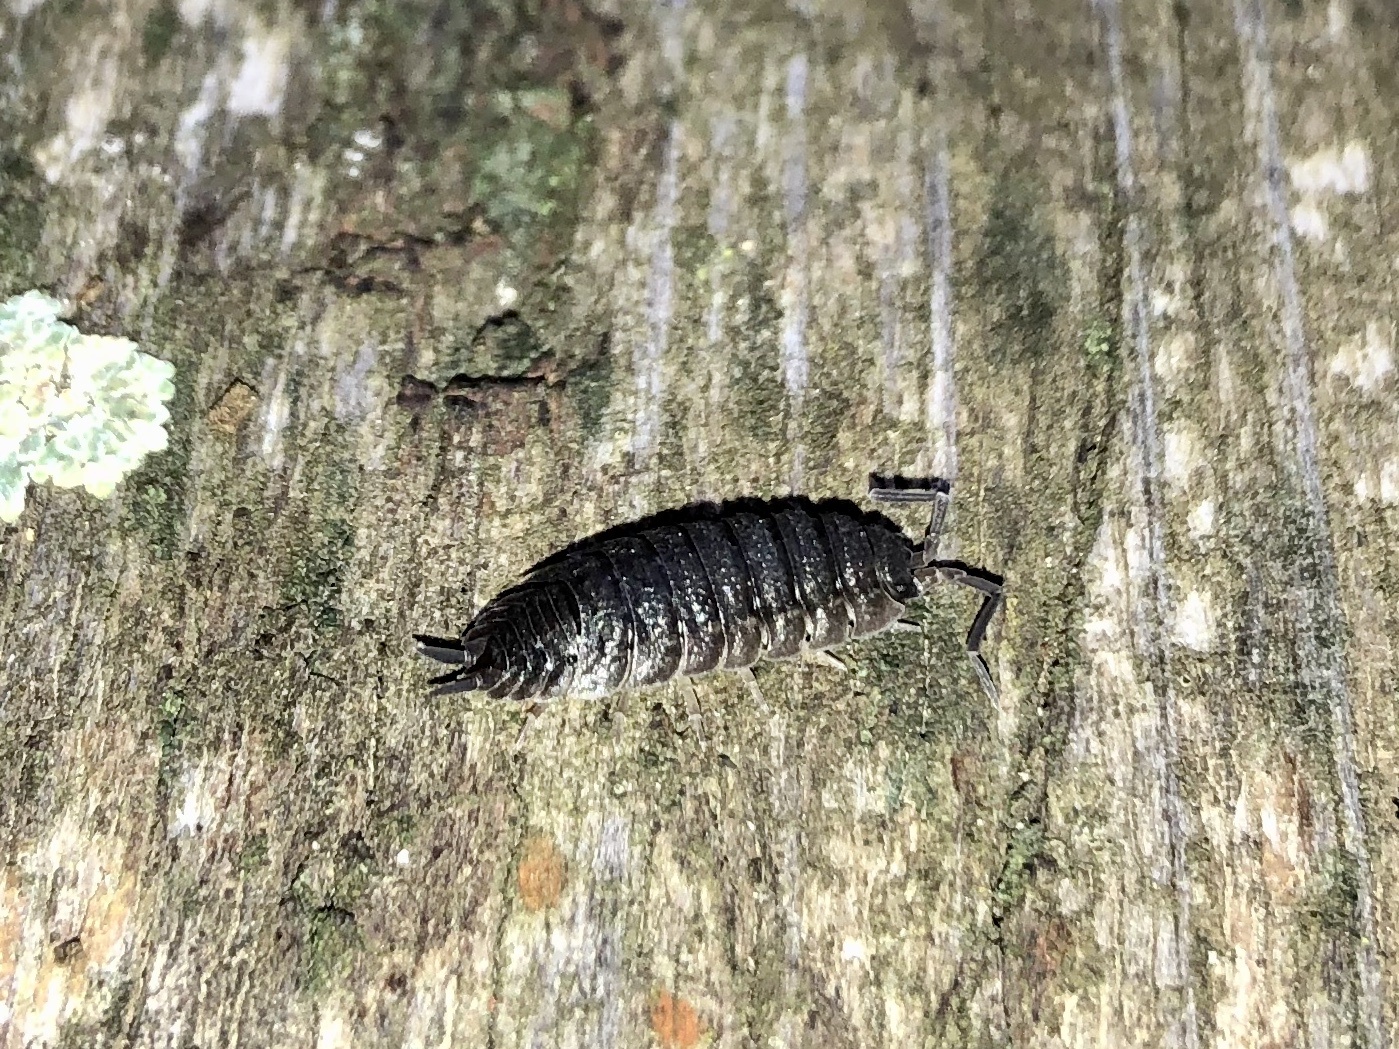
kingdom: Animalia
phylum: Arthropoda
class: Malacostraca
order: Isopoda
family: Porcellionidae
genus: Porcellio
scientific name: Porcellio scaber
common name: Common rough woodlouse
